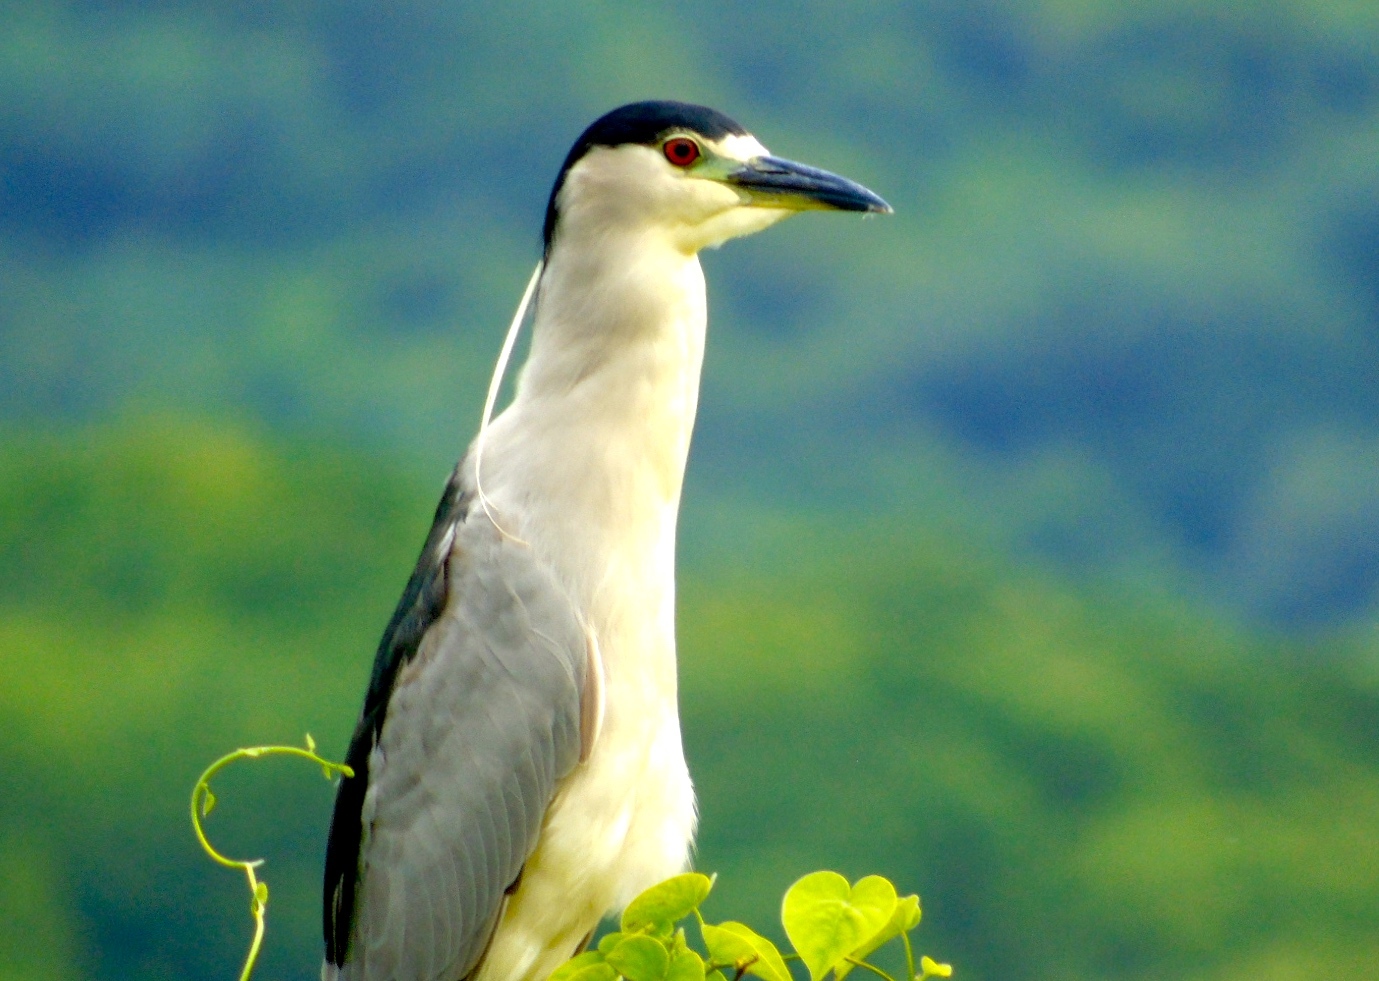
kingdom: Animalia
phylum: Chordata
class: Aves
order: Pelecaniformes
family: Ardeidae
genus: Nycticorax
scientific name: Nycticorax nycticorax
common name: Black-crowned night heron
